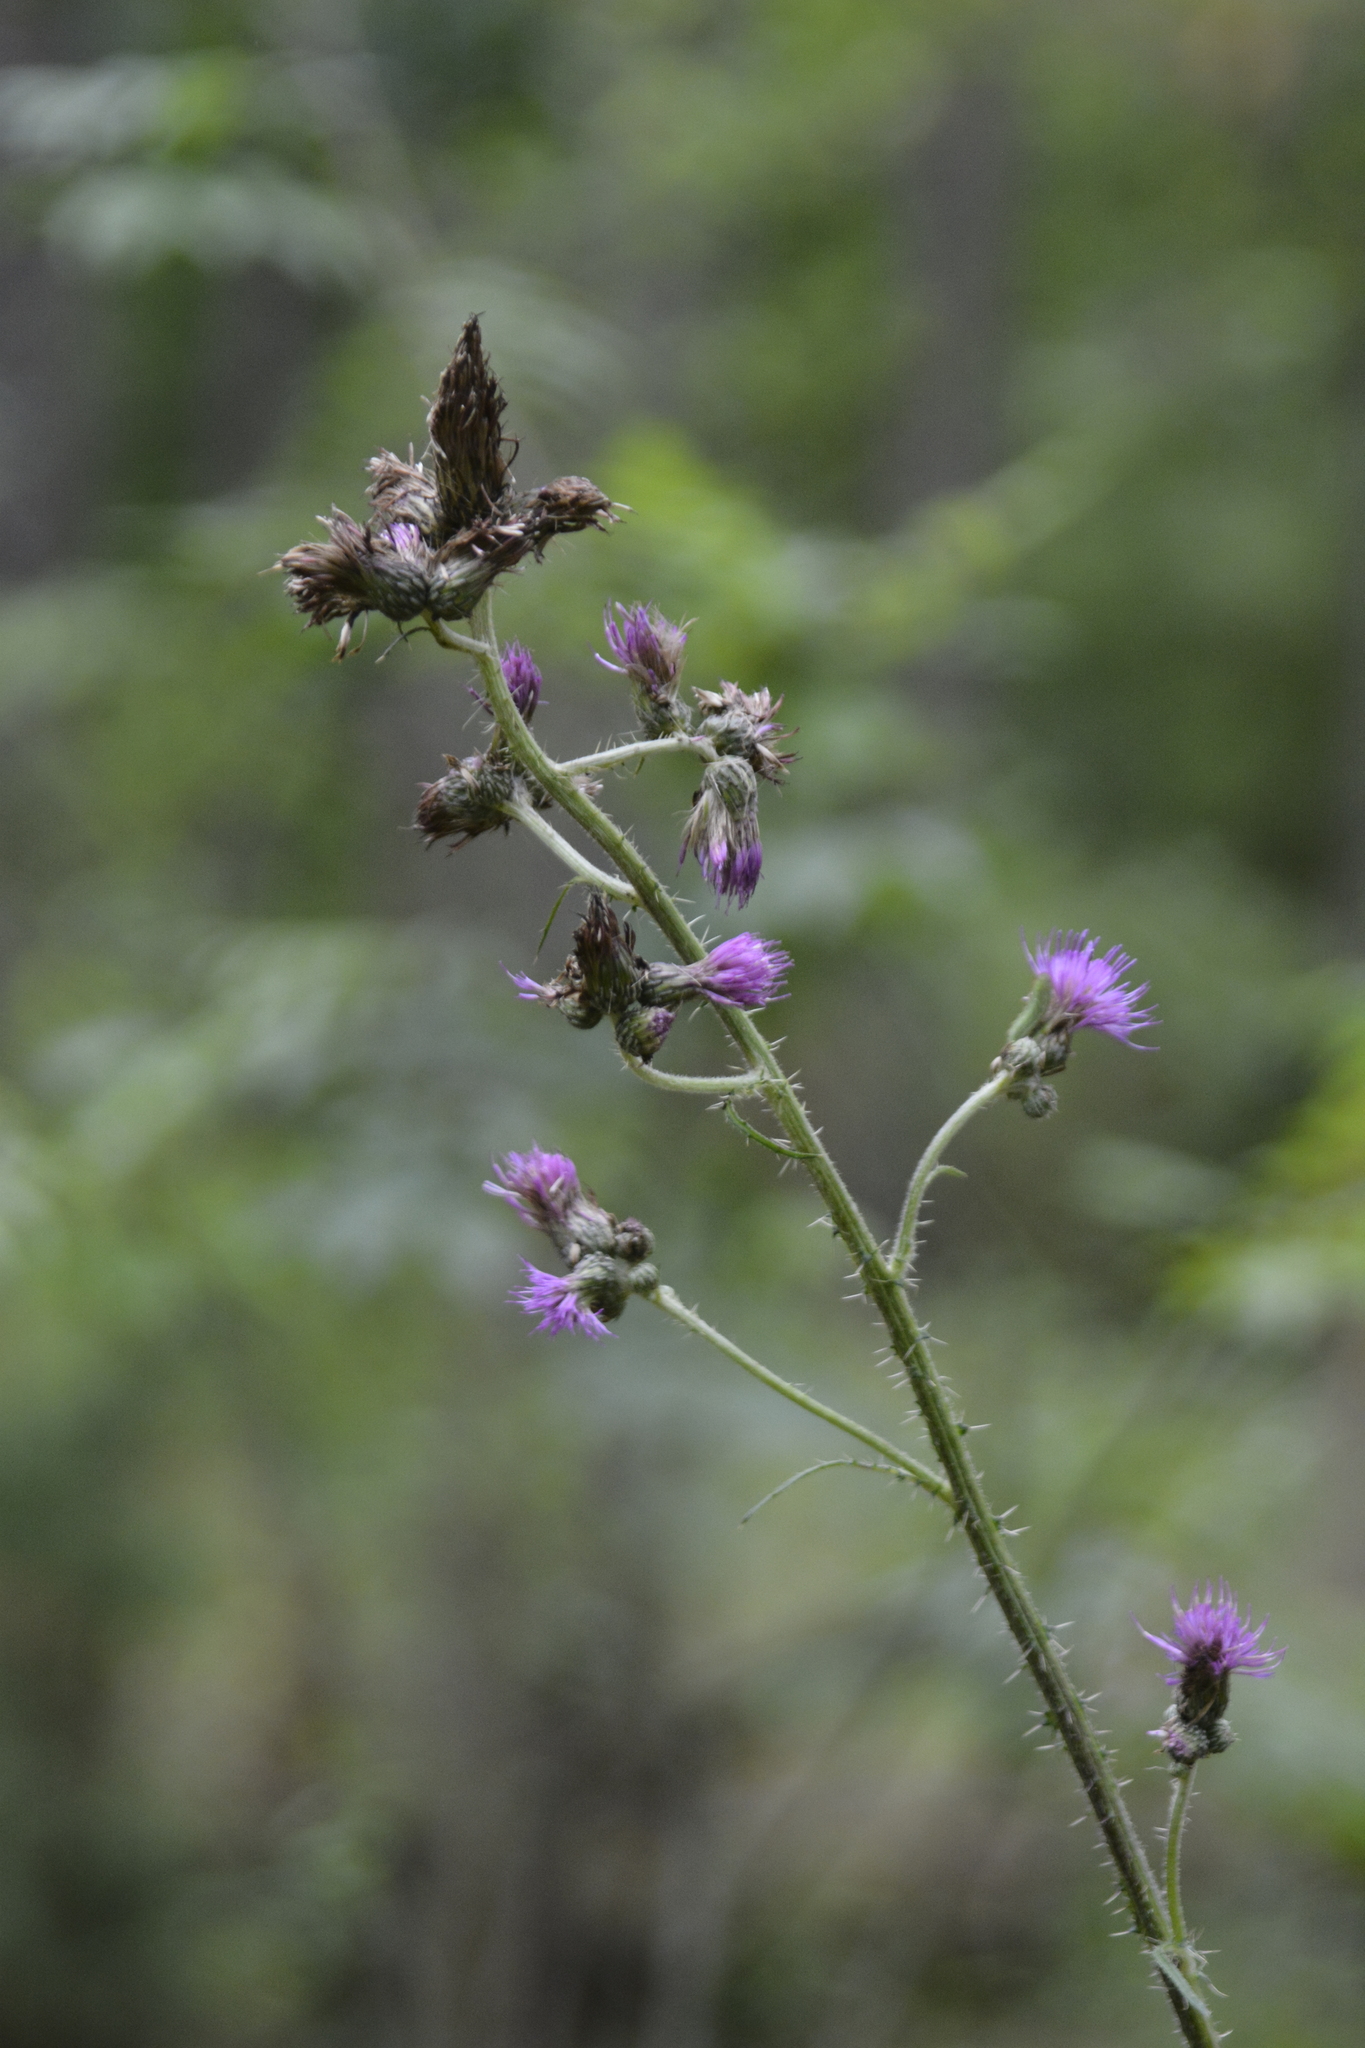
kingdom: Plantae
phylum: Tracheophyta
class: Magnoliopsida
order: Asterales
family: Asteraceae
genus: Cirsium
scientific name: Cirsium palustre
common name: Marsh thistle
